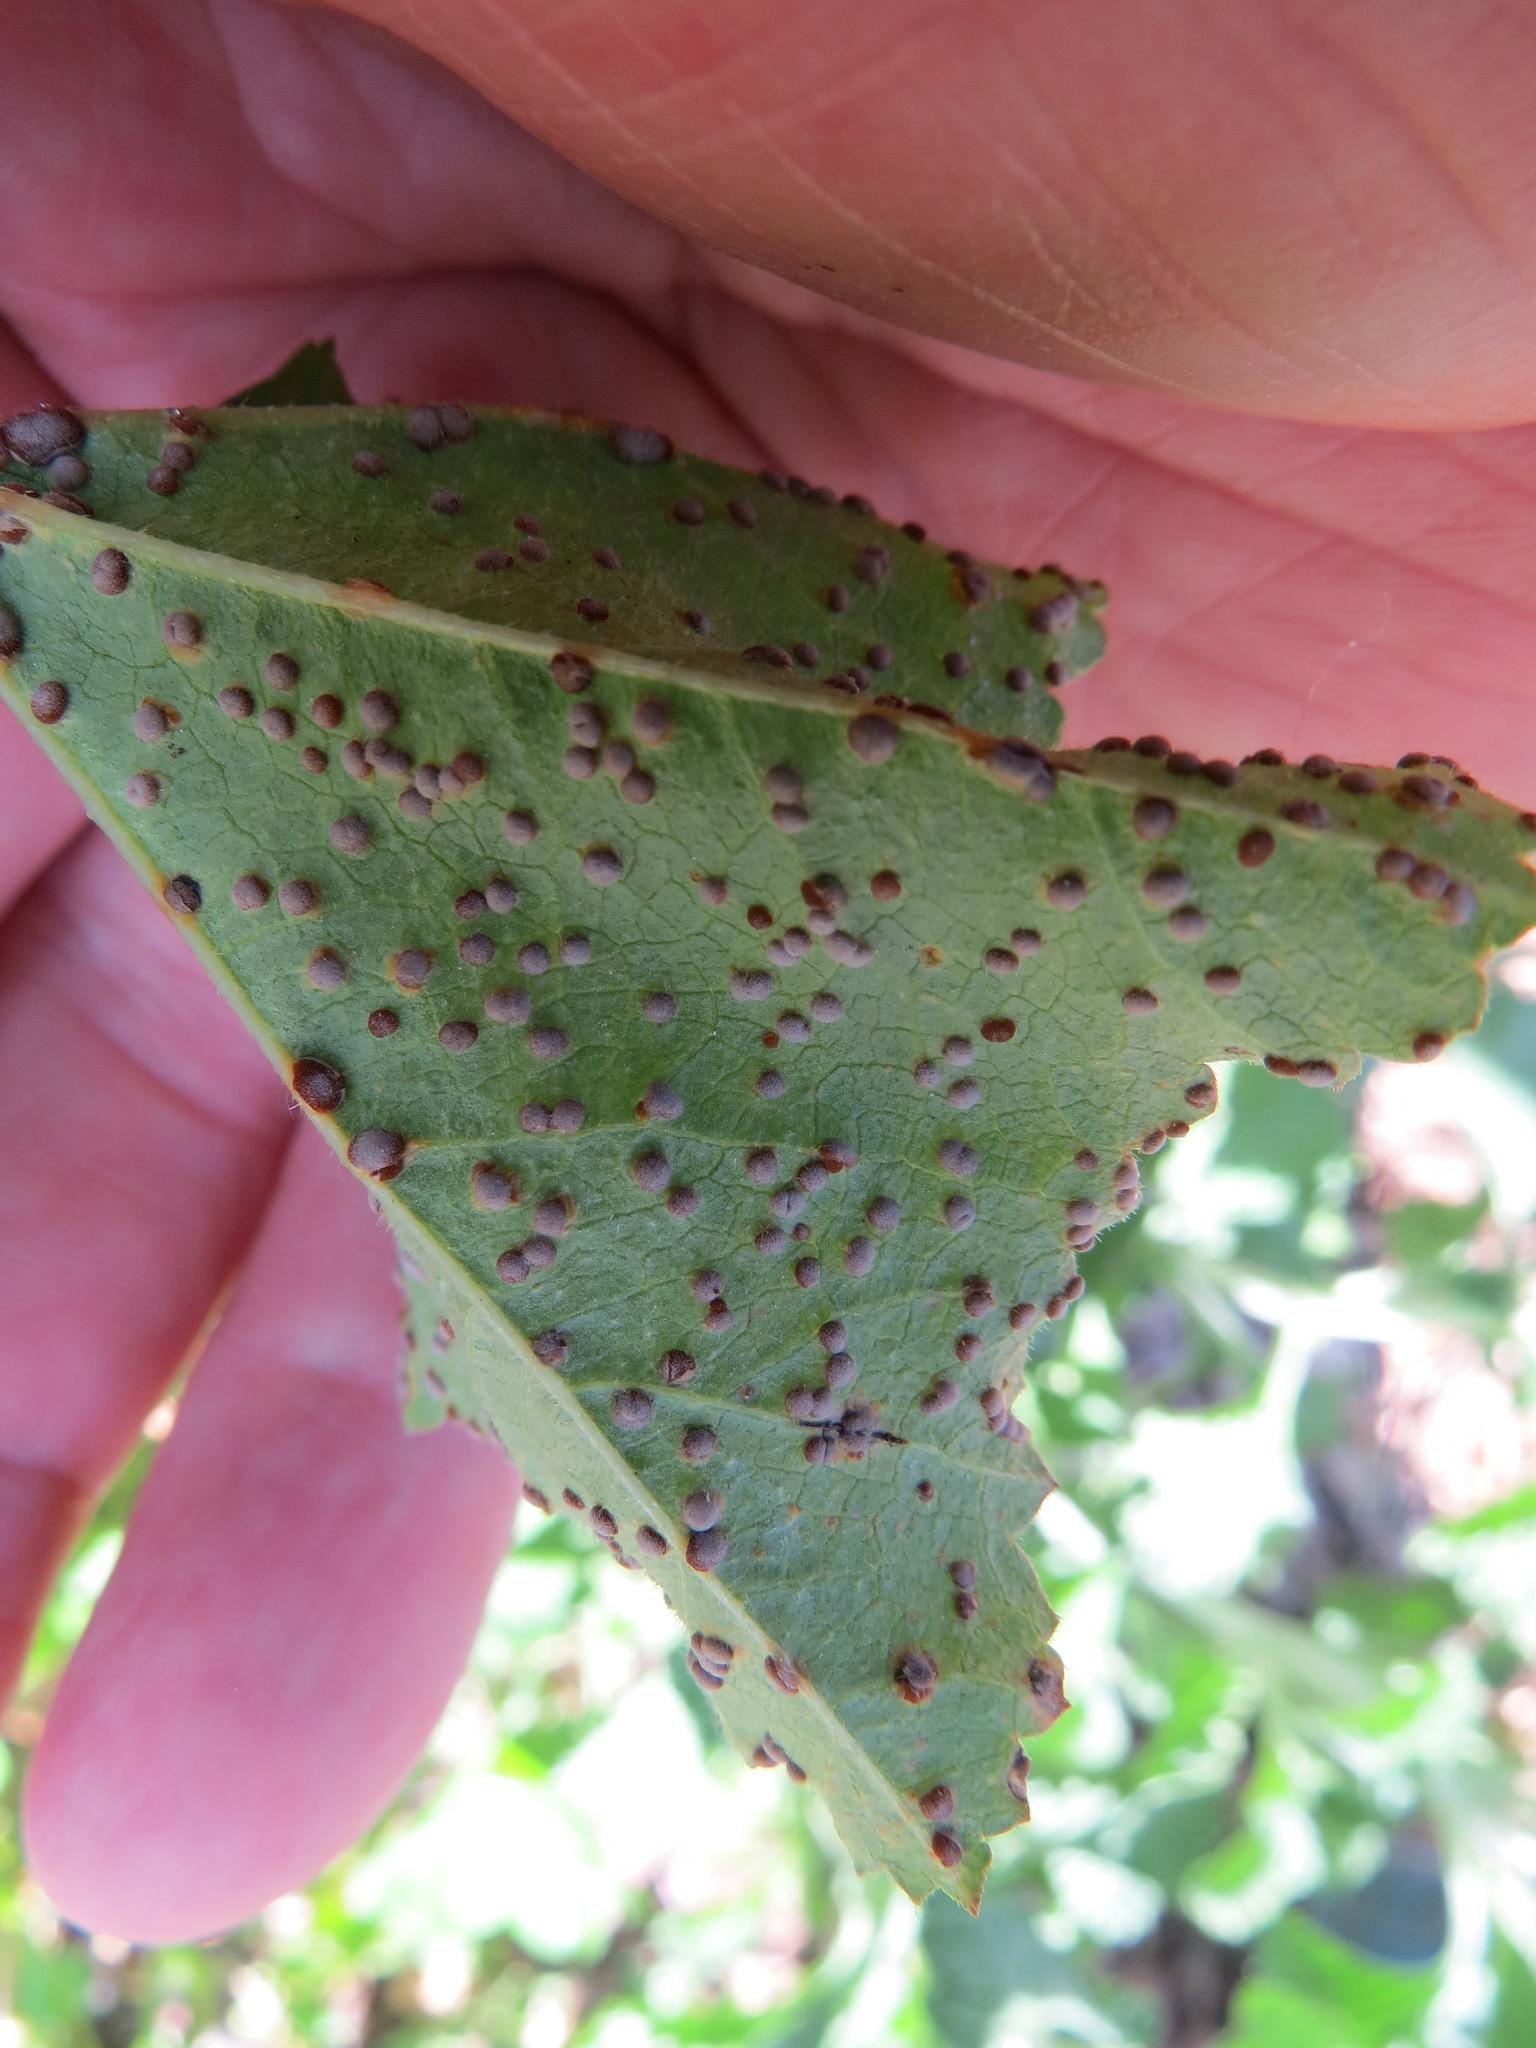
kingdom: Fungi
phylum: Basidiomycota
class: Pucciniomycetes
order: Pucciniales
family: Pucciniaceae
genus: Puccinia
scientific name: Puccinia malvacearum
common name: Hollyhock rust
